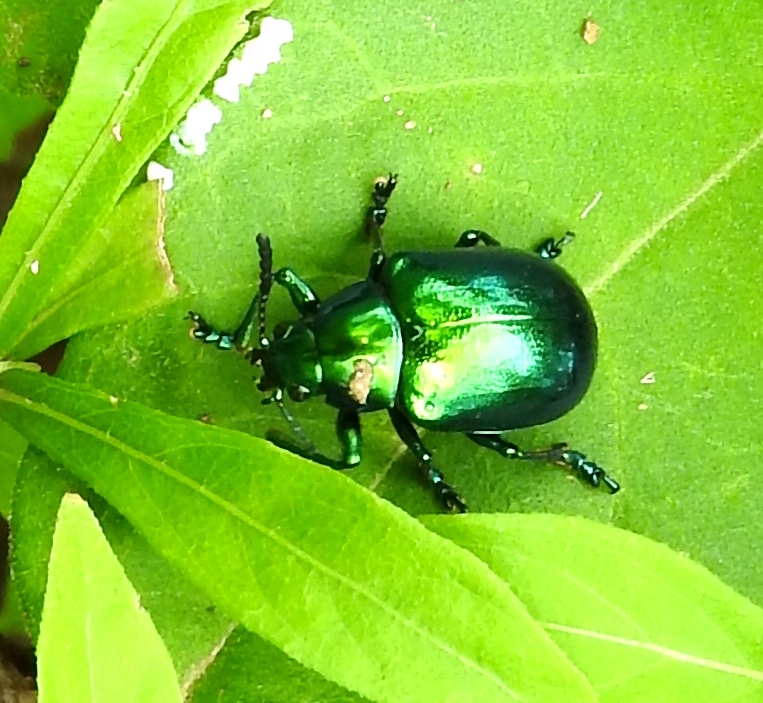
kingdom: Animalia
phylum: Arthropoda
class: Insecta
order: Coleoptera
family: Chrysomelidae
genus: Eumolpus
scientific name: Eumolpus robustus
